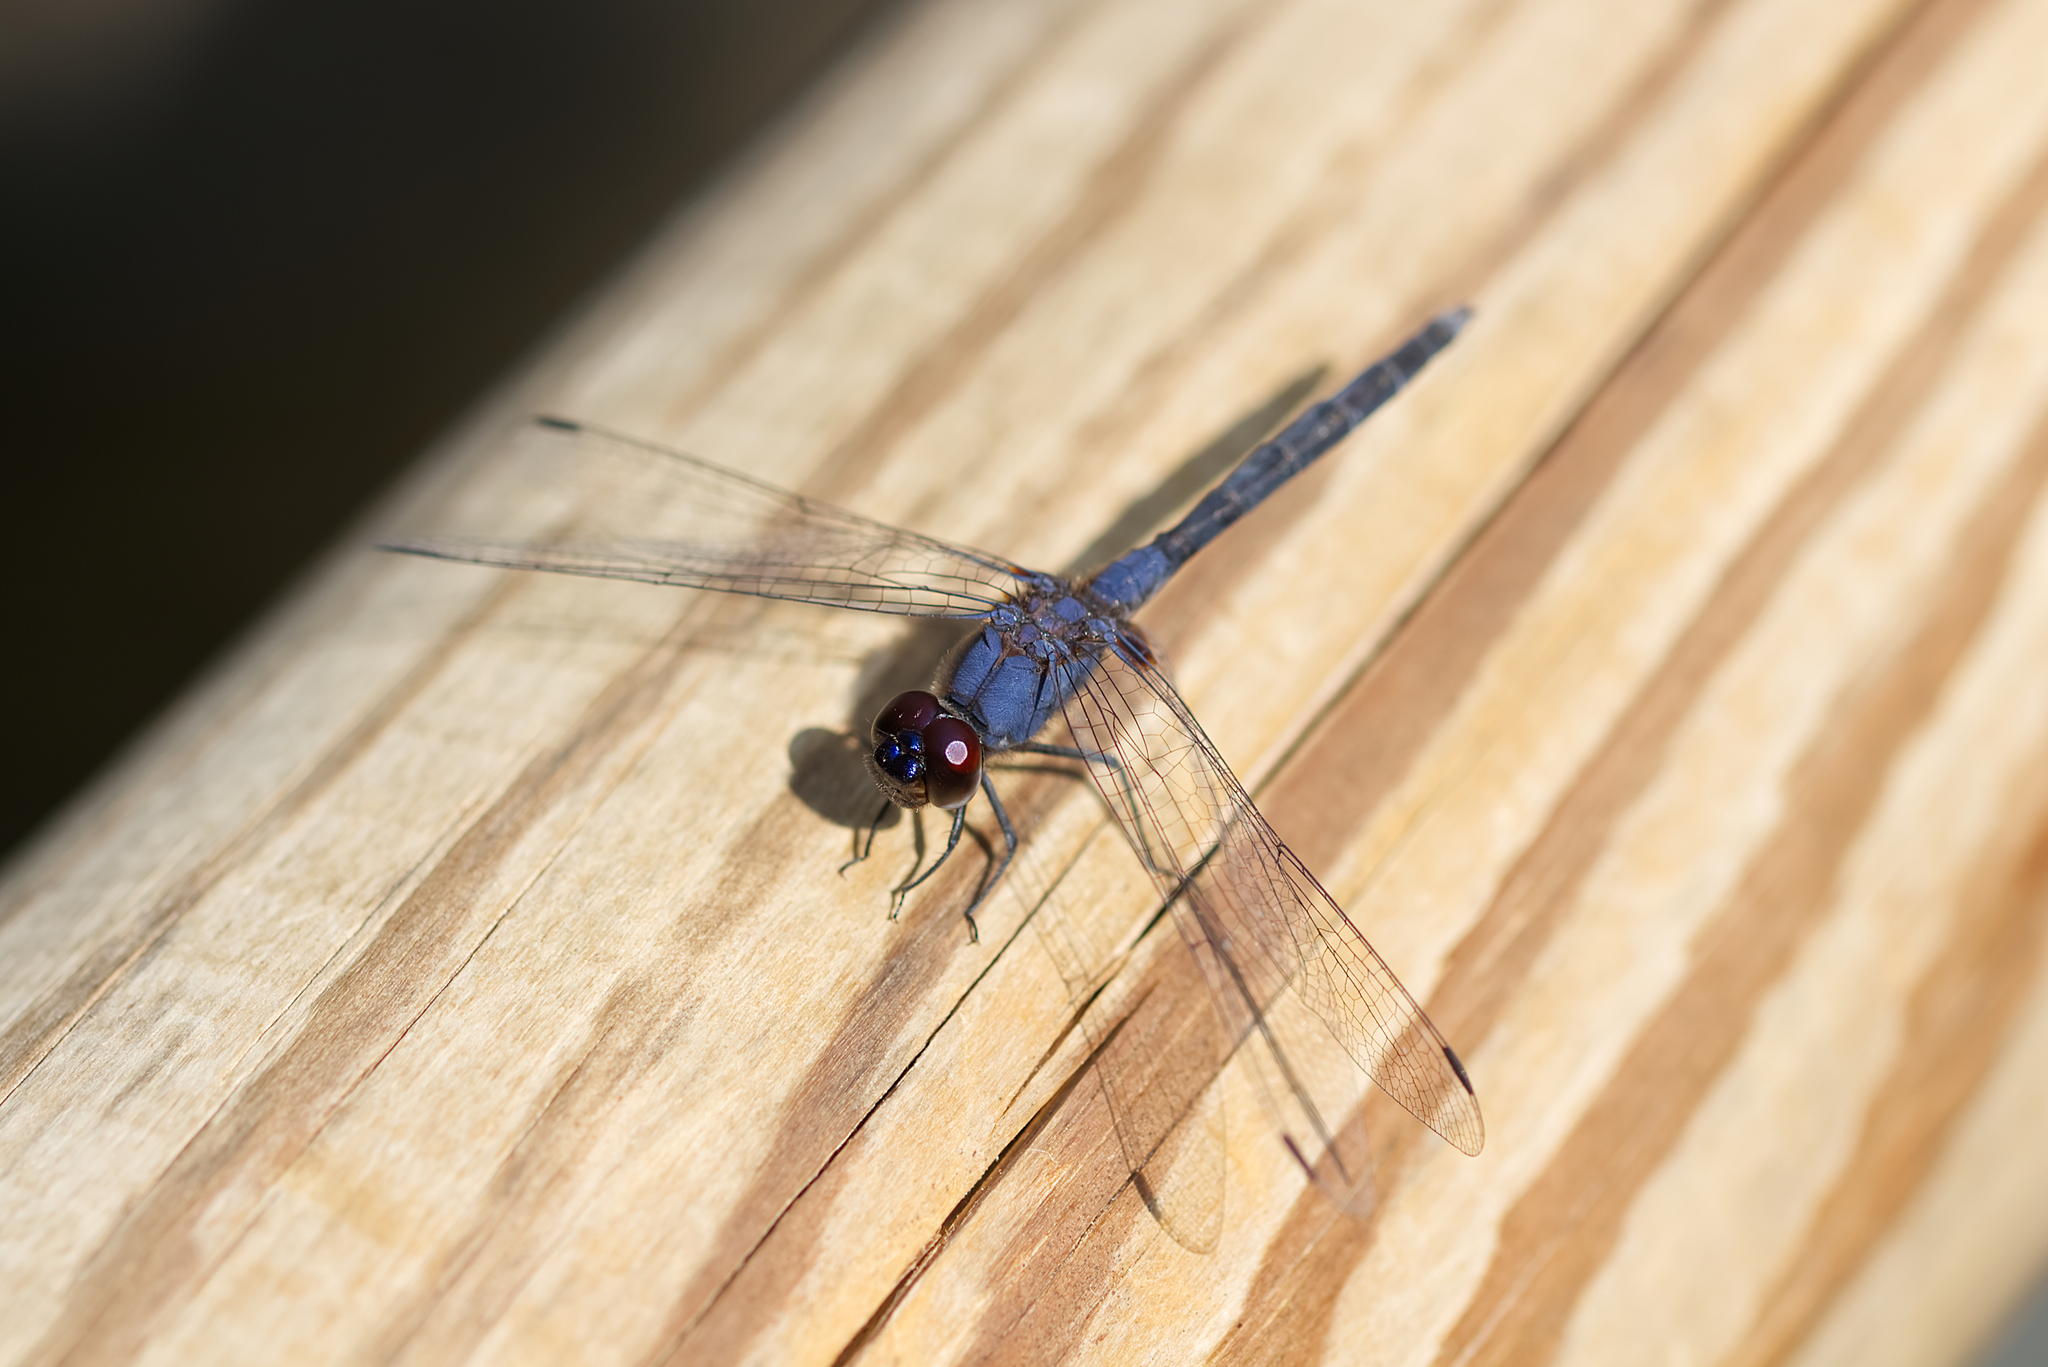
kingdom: Animalia
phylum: Arthropoda
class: Insecta
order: Odonata
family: Libellulidae
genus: Trithemis
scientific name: Trithemis festiva
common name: Indigo dropwing
